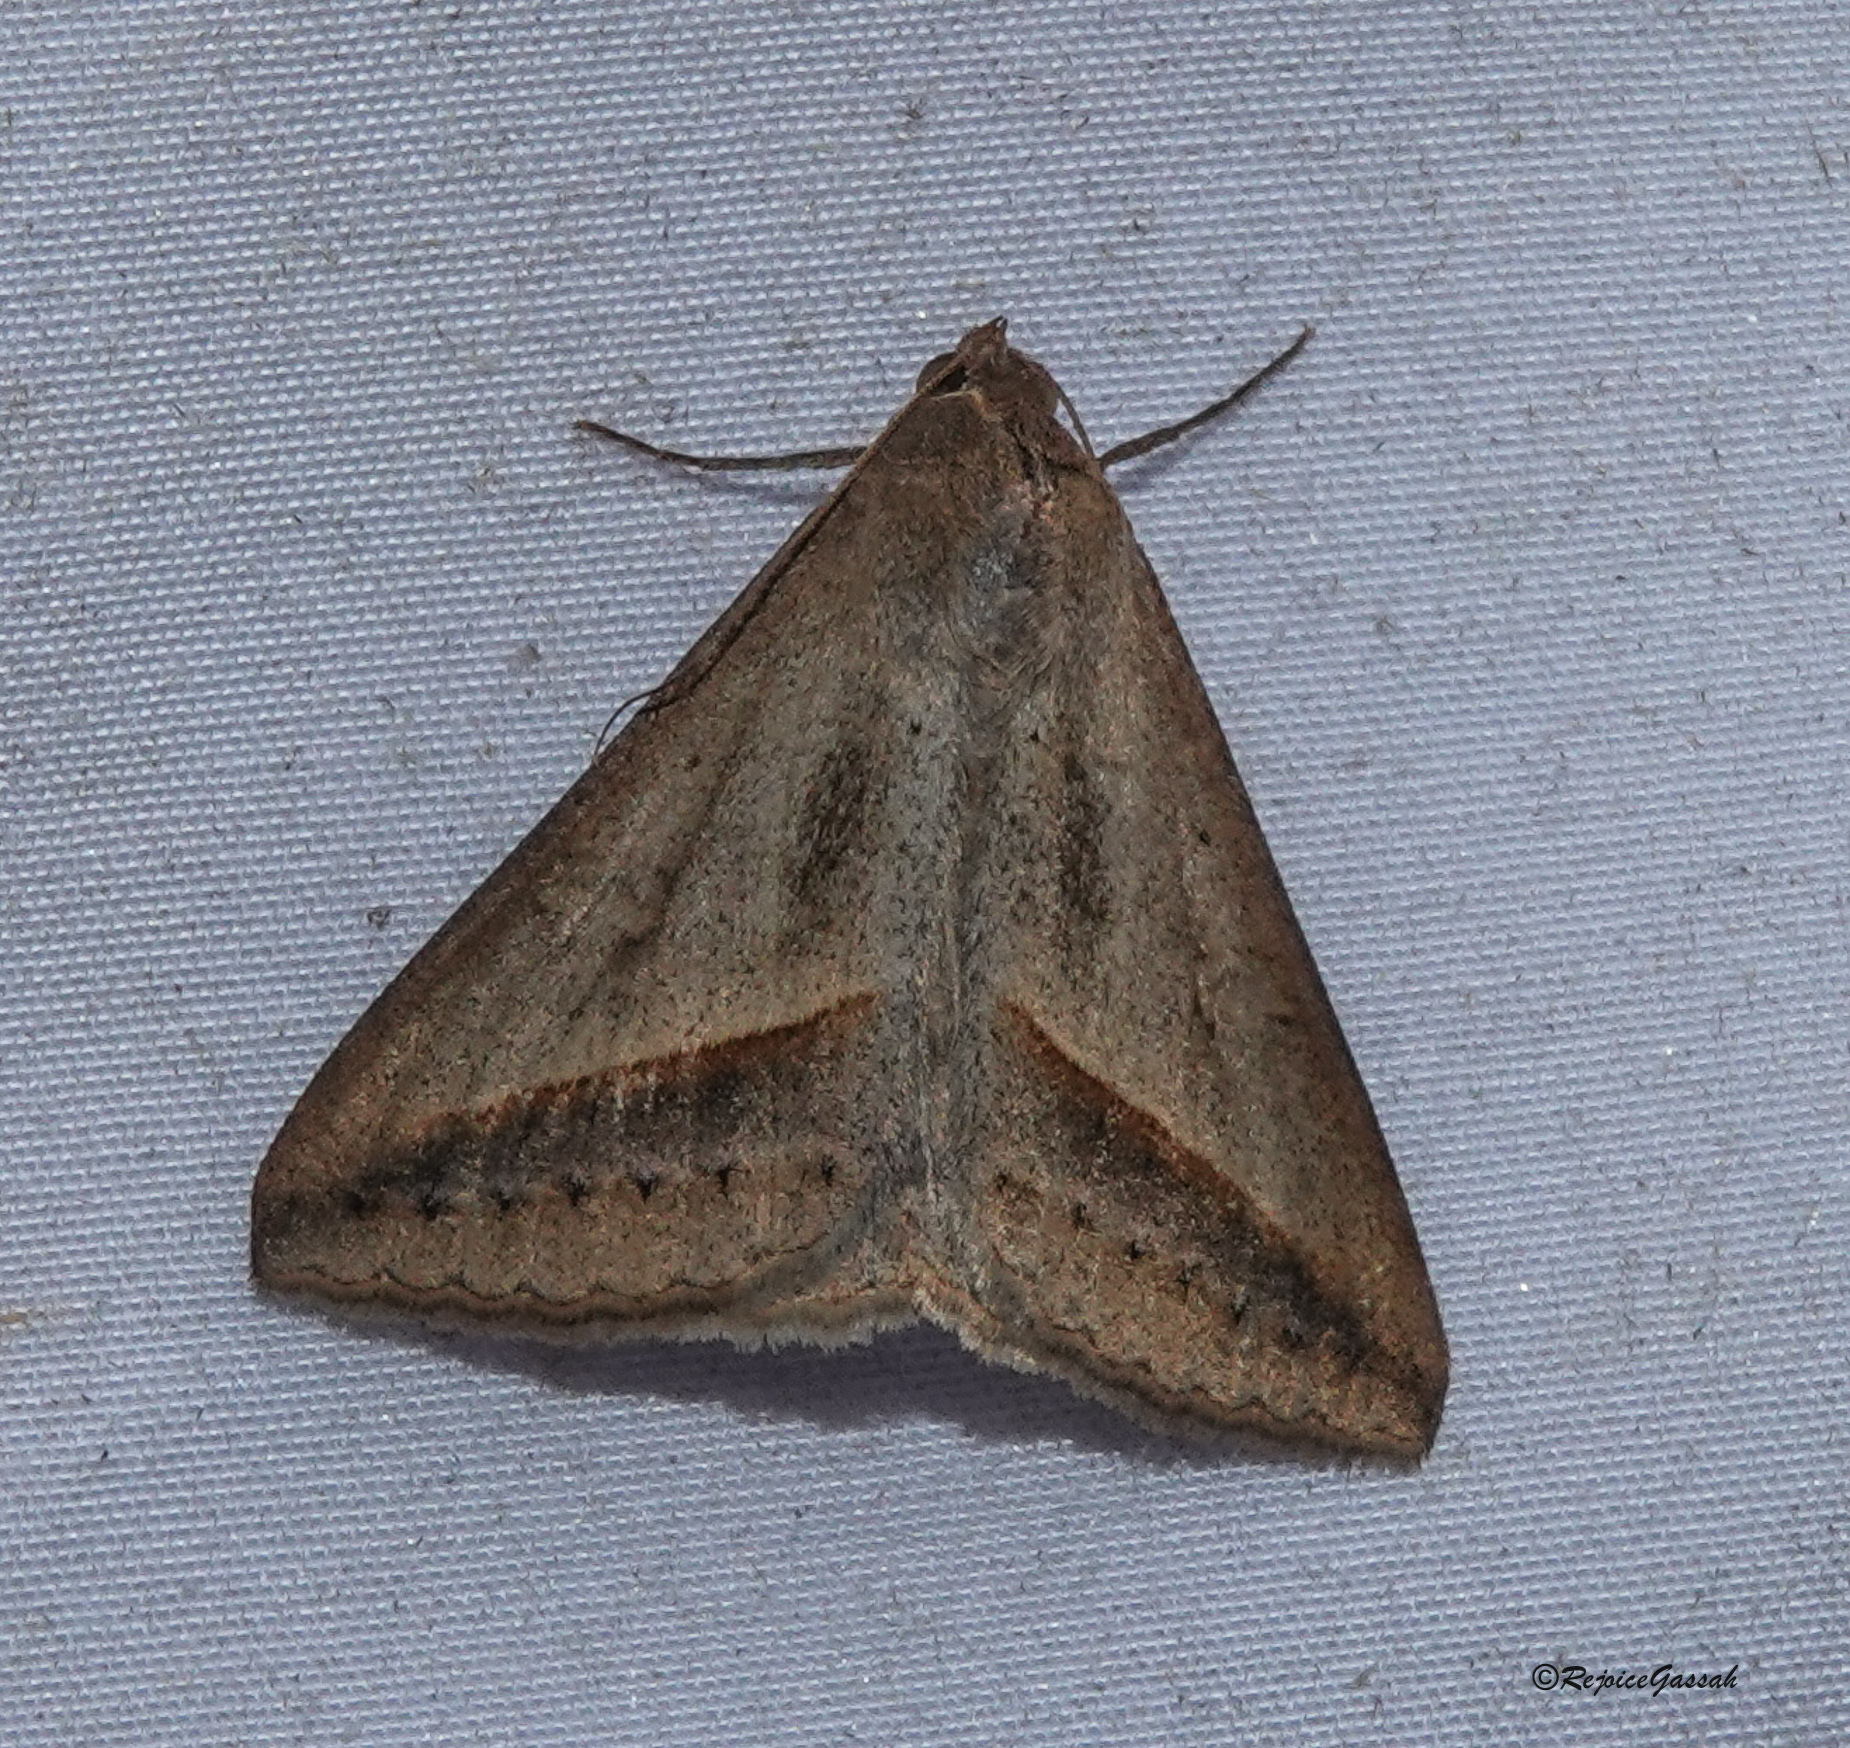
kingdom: Animalia
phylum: Arthropoda
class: Insecta
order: Lepidoptera
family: Erebidae
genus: Mocis
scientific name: Mocis frugalis
